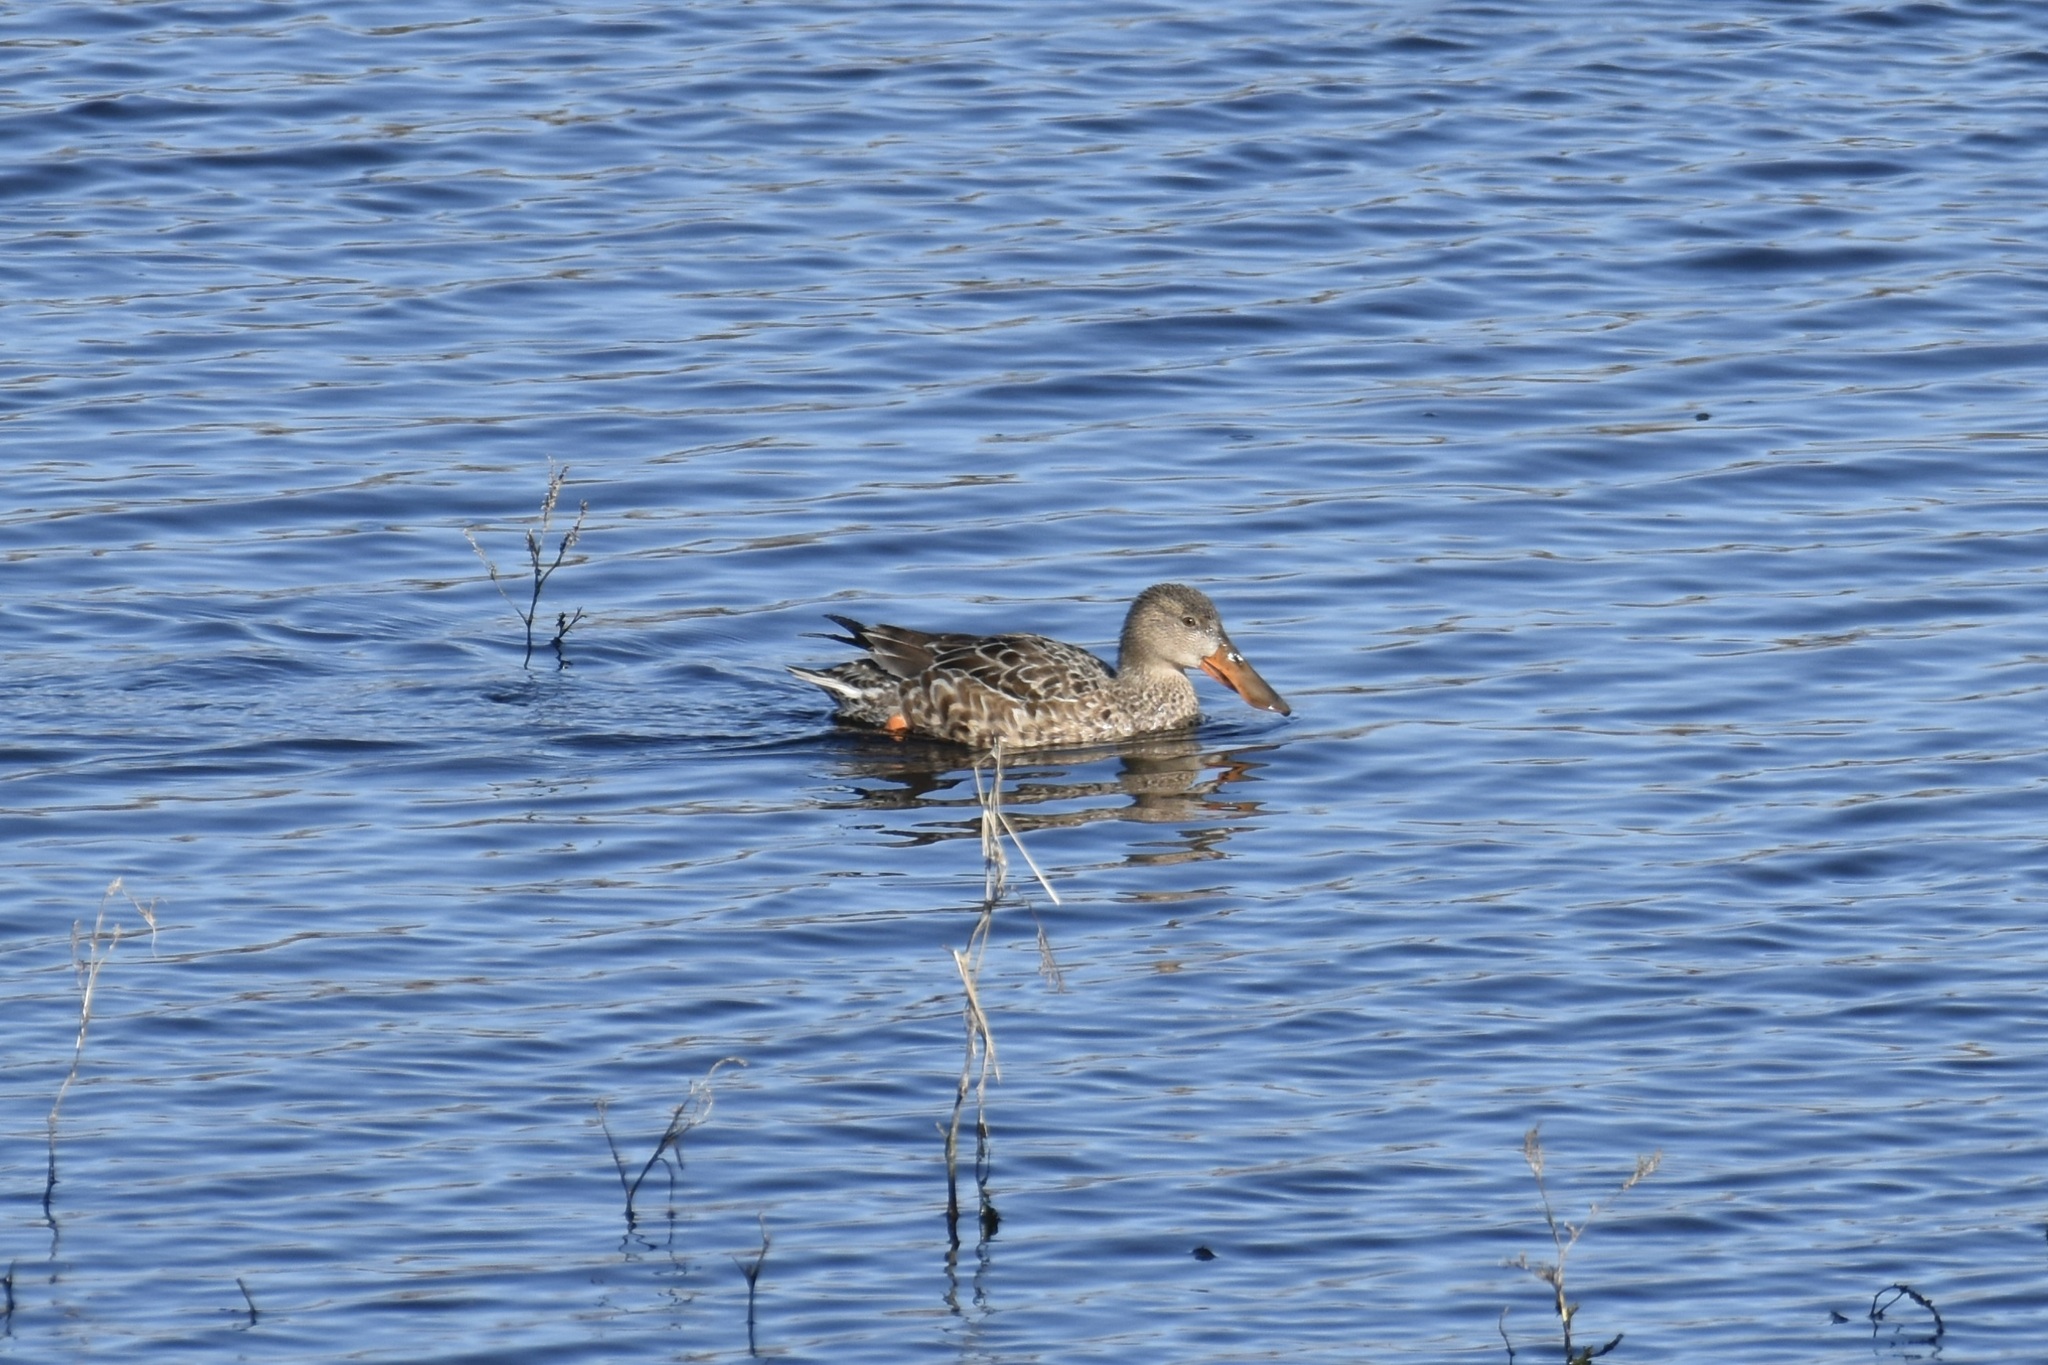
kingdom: Animalia
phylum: Chordata
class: Aves
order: Anseriformes
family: Anatidae
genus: Spatula
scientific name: Spatula clypeata
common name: Northern shoveler
